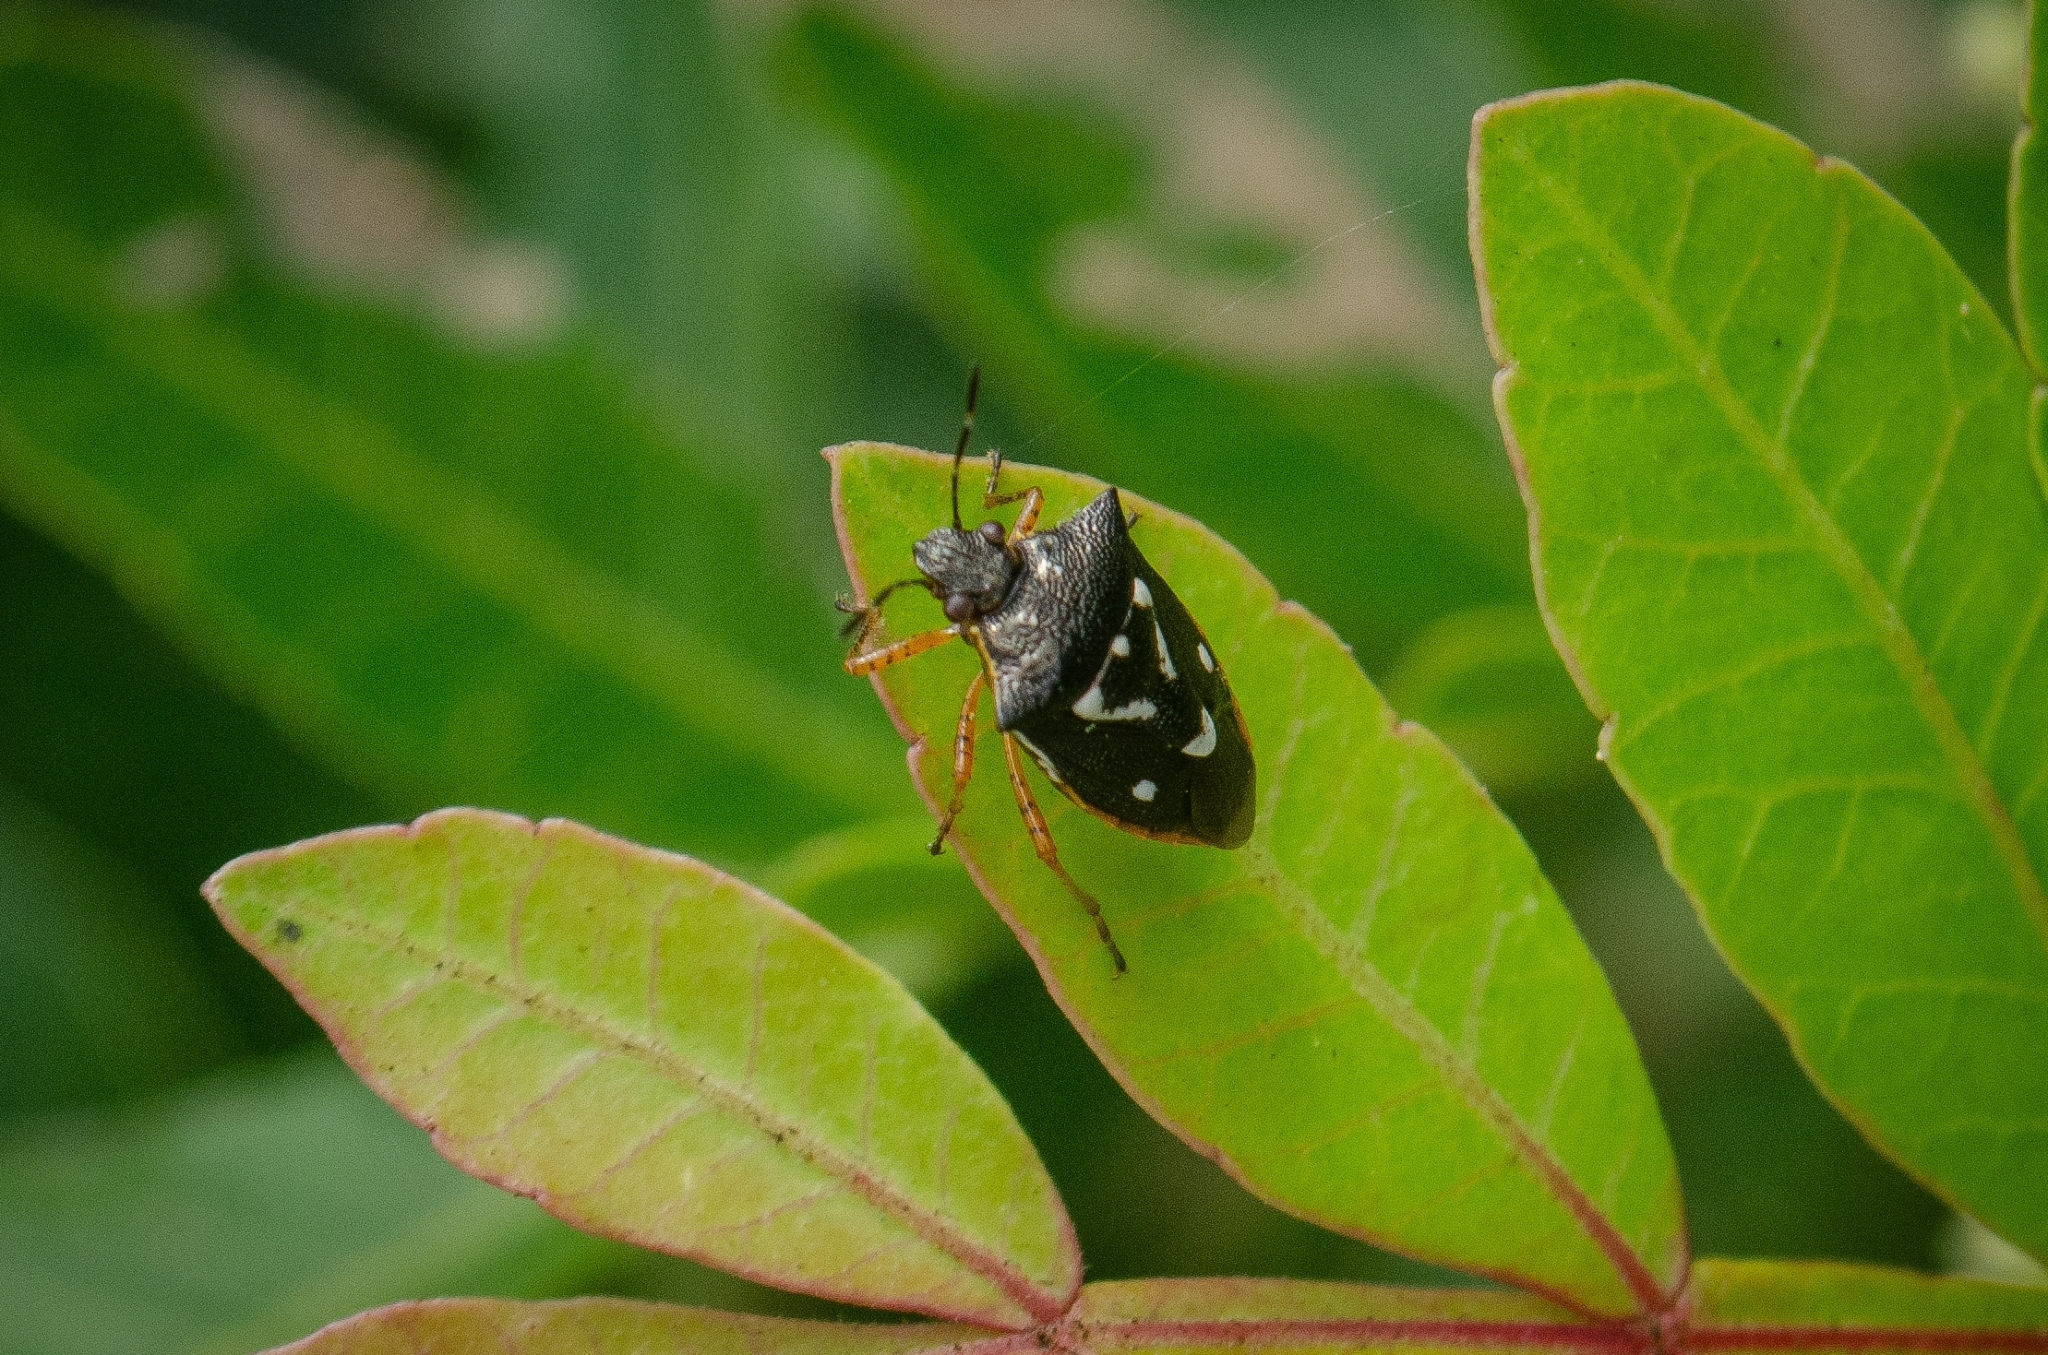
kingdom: Animalia
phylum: Arthropoda
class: Insecta
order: Hemiptera
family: Pentatomidae
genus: Mormidea
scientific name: Mormidea v-luteum
